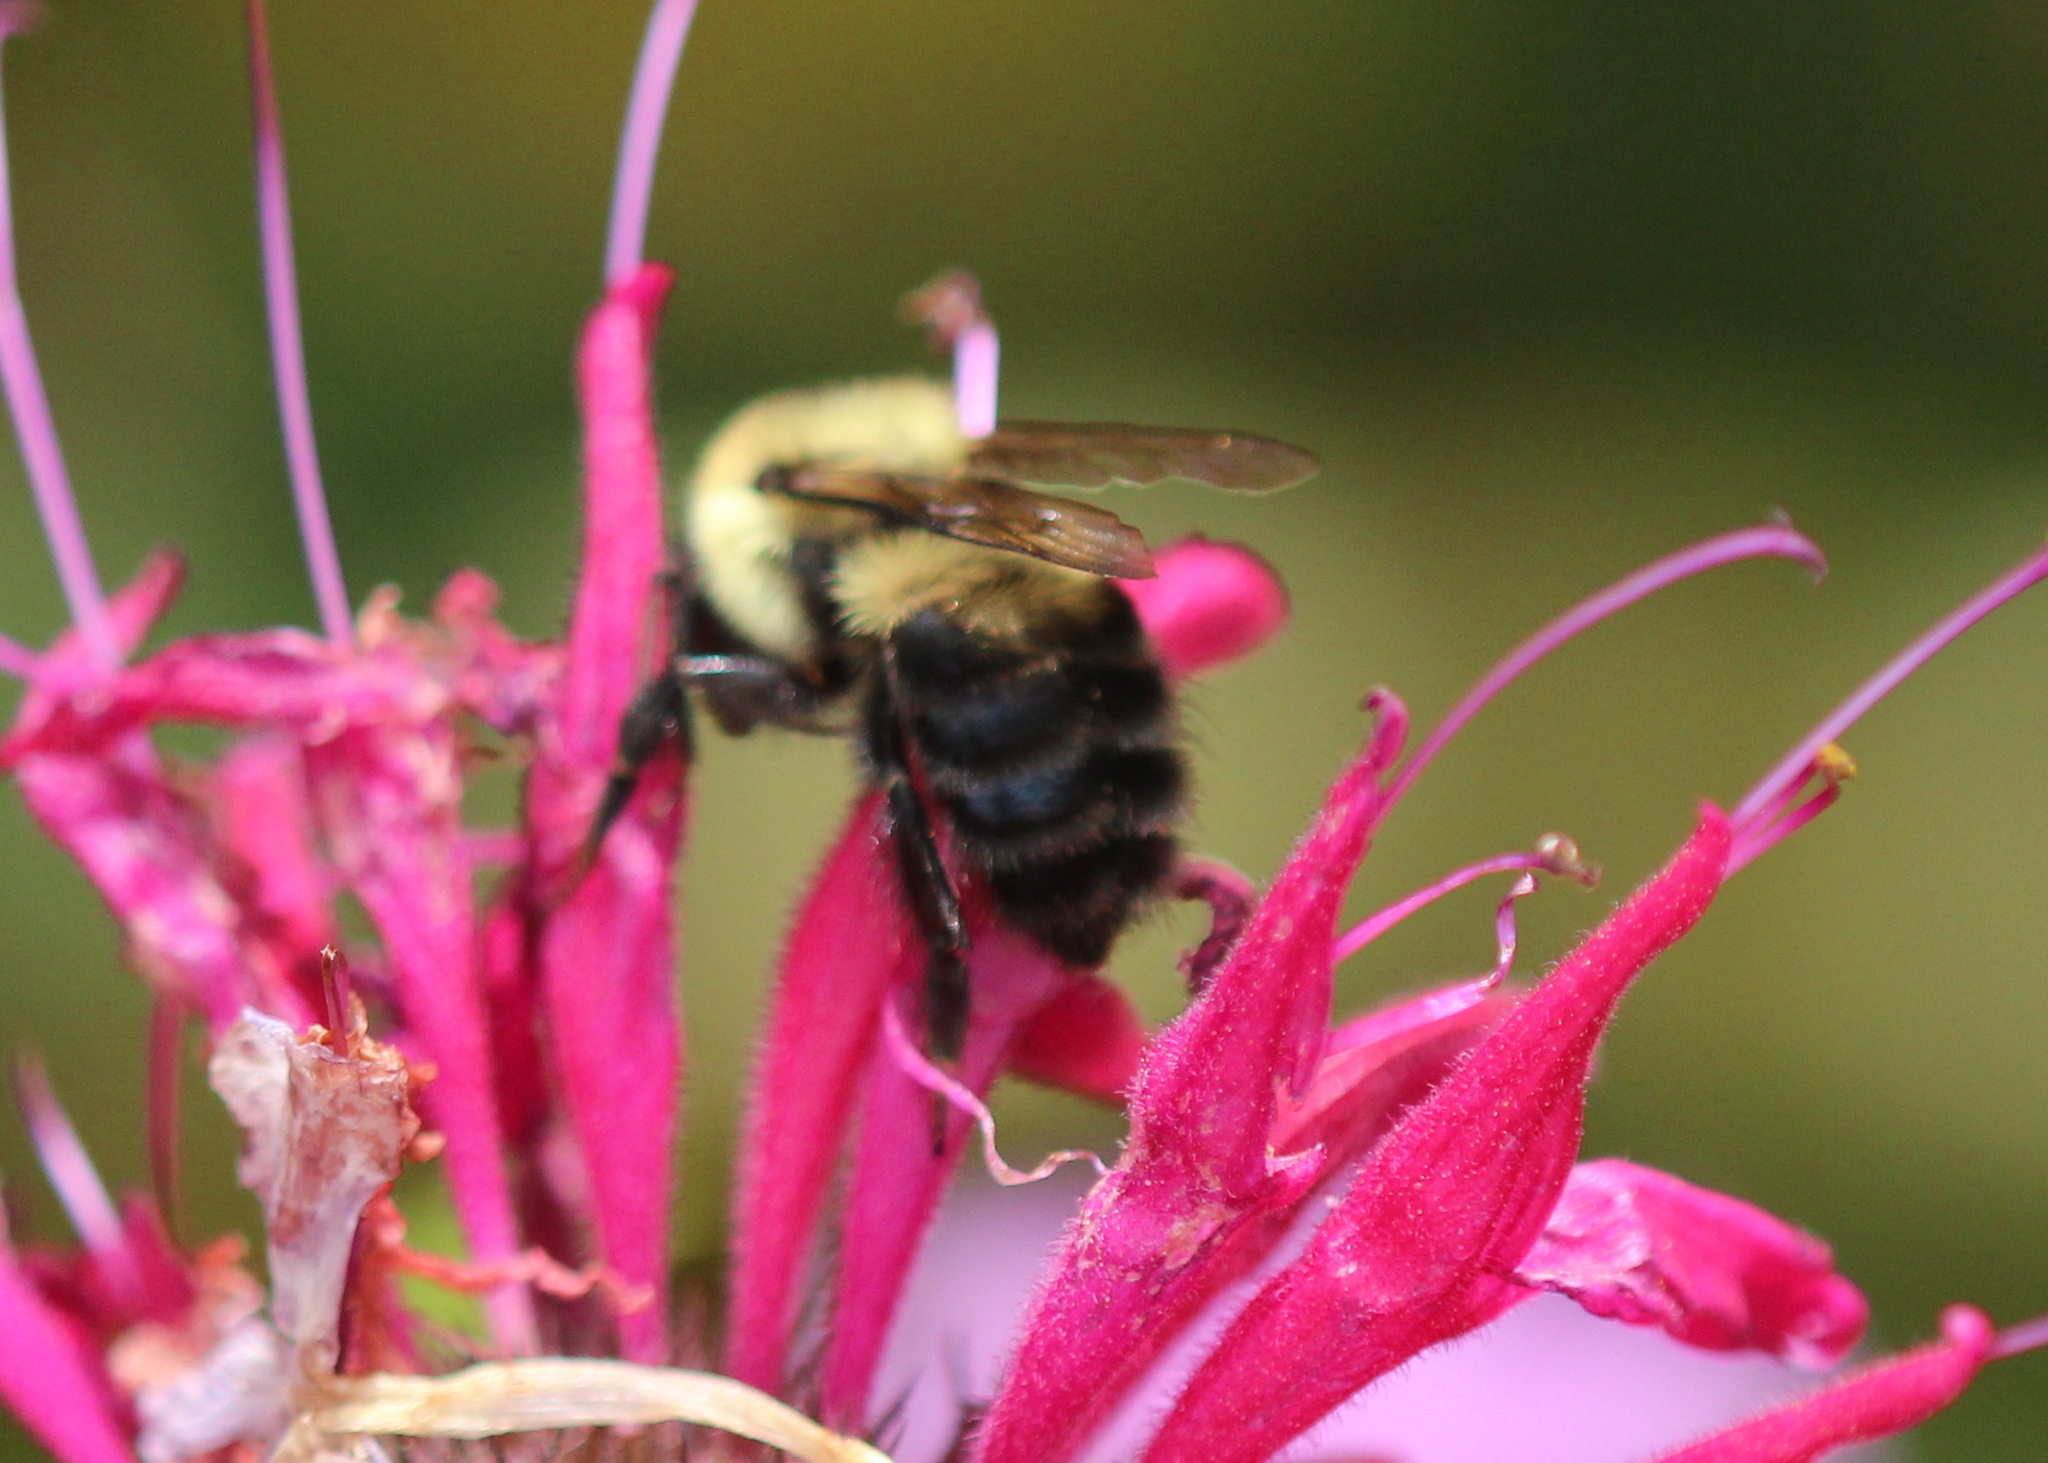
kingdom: Animalia
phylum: Arthropoda
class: Insecta
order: Hymenoptera
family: Apidae
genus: Bombus
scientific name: Bombus bimaculatus
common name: Two-spotted bumble bee
